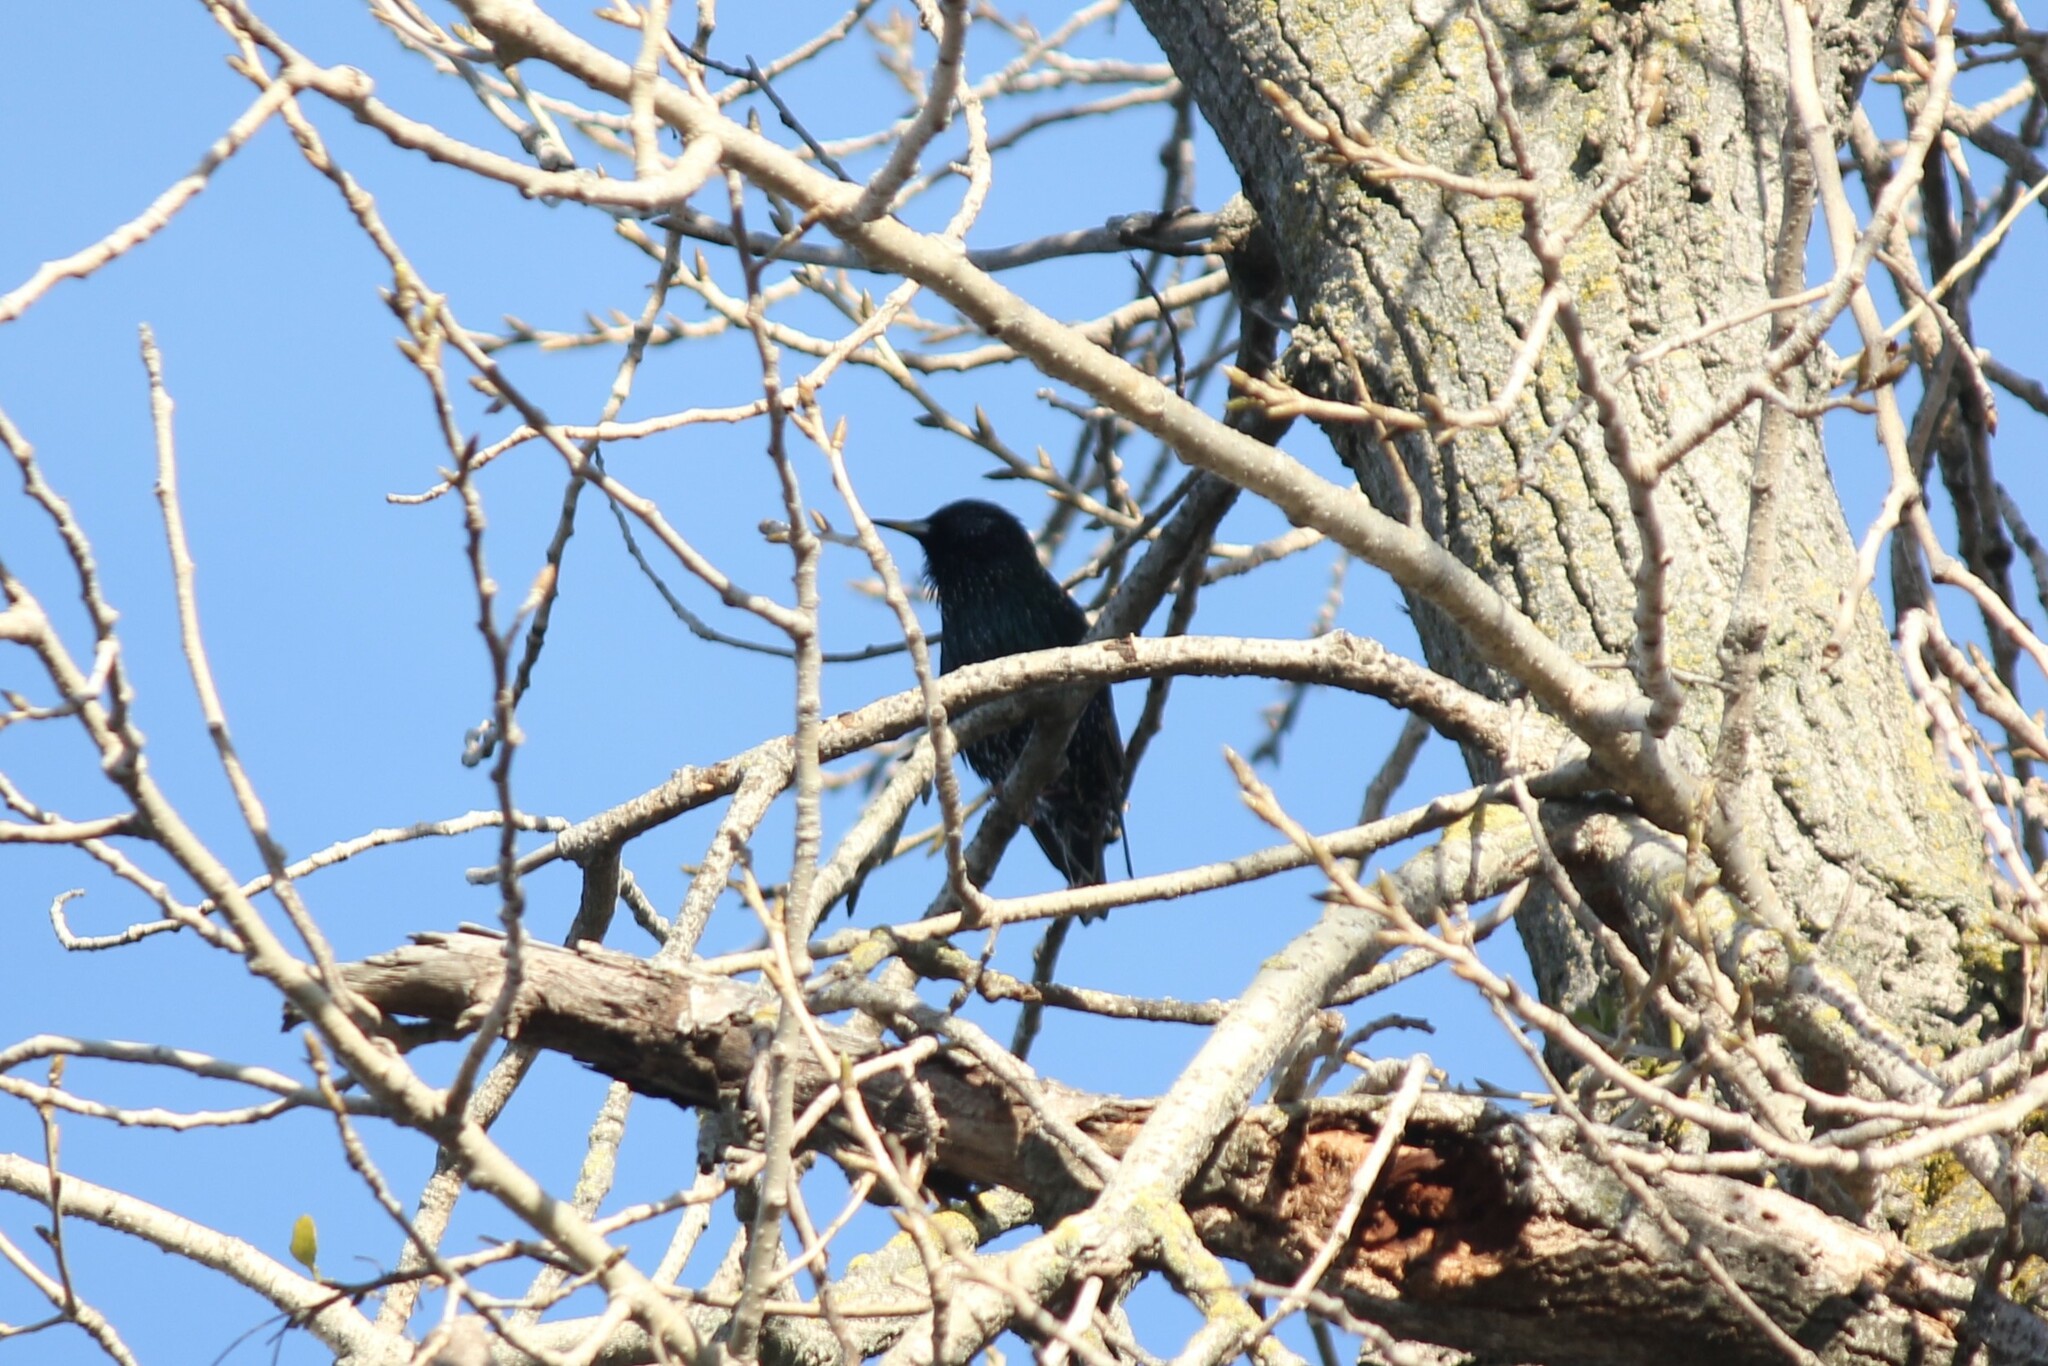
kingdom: Animalia
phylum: Chordata
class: Aves
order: Passeriformes
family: Sturnidae
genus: Sturnus
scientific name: Sturnus vulgaris
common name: Common starling
